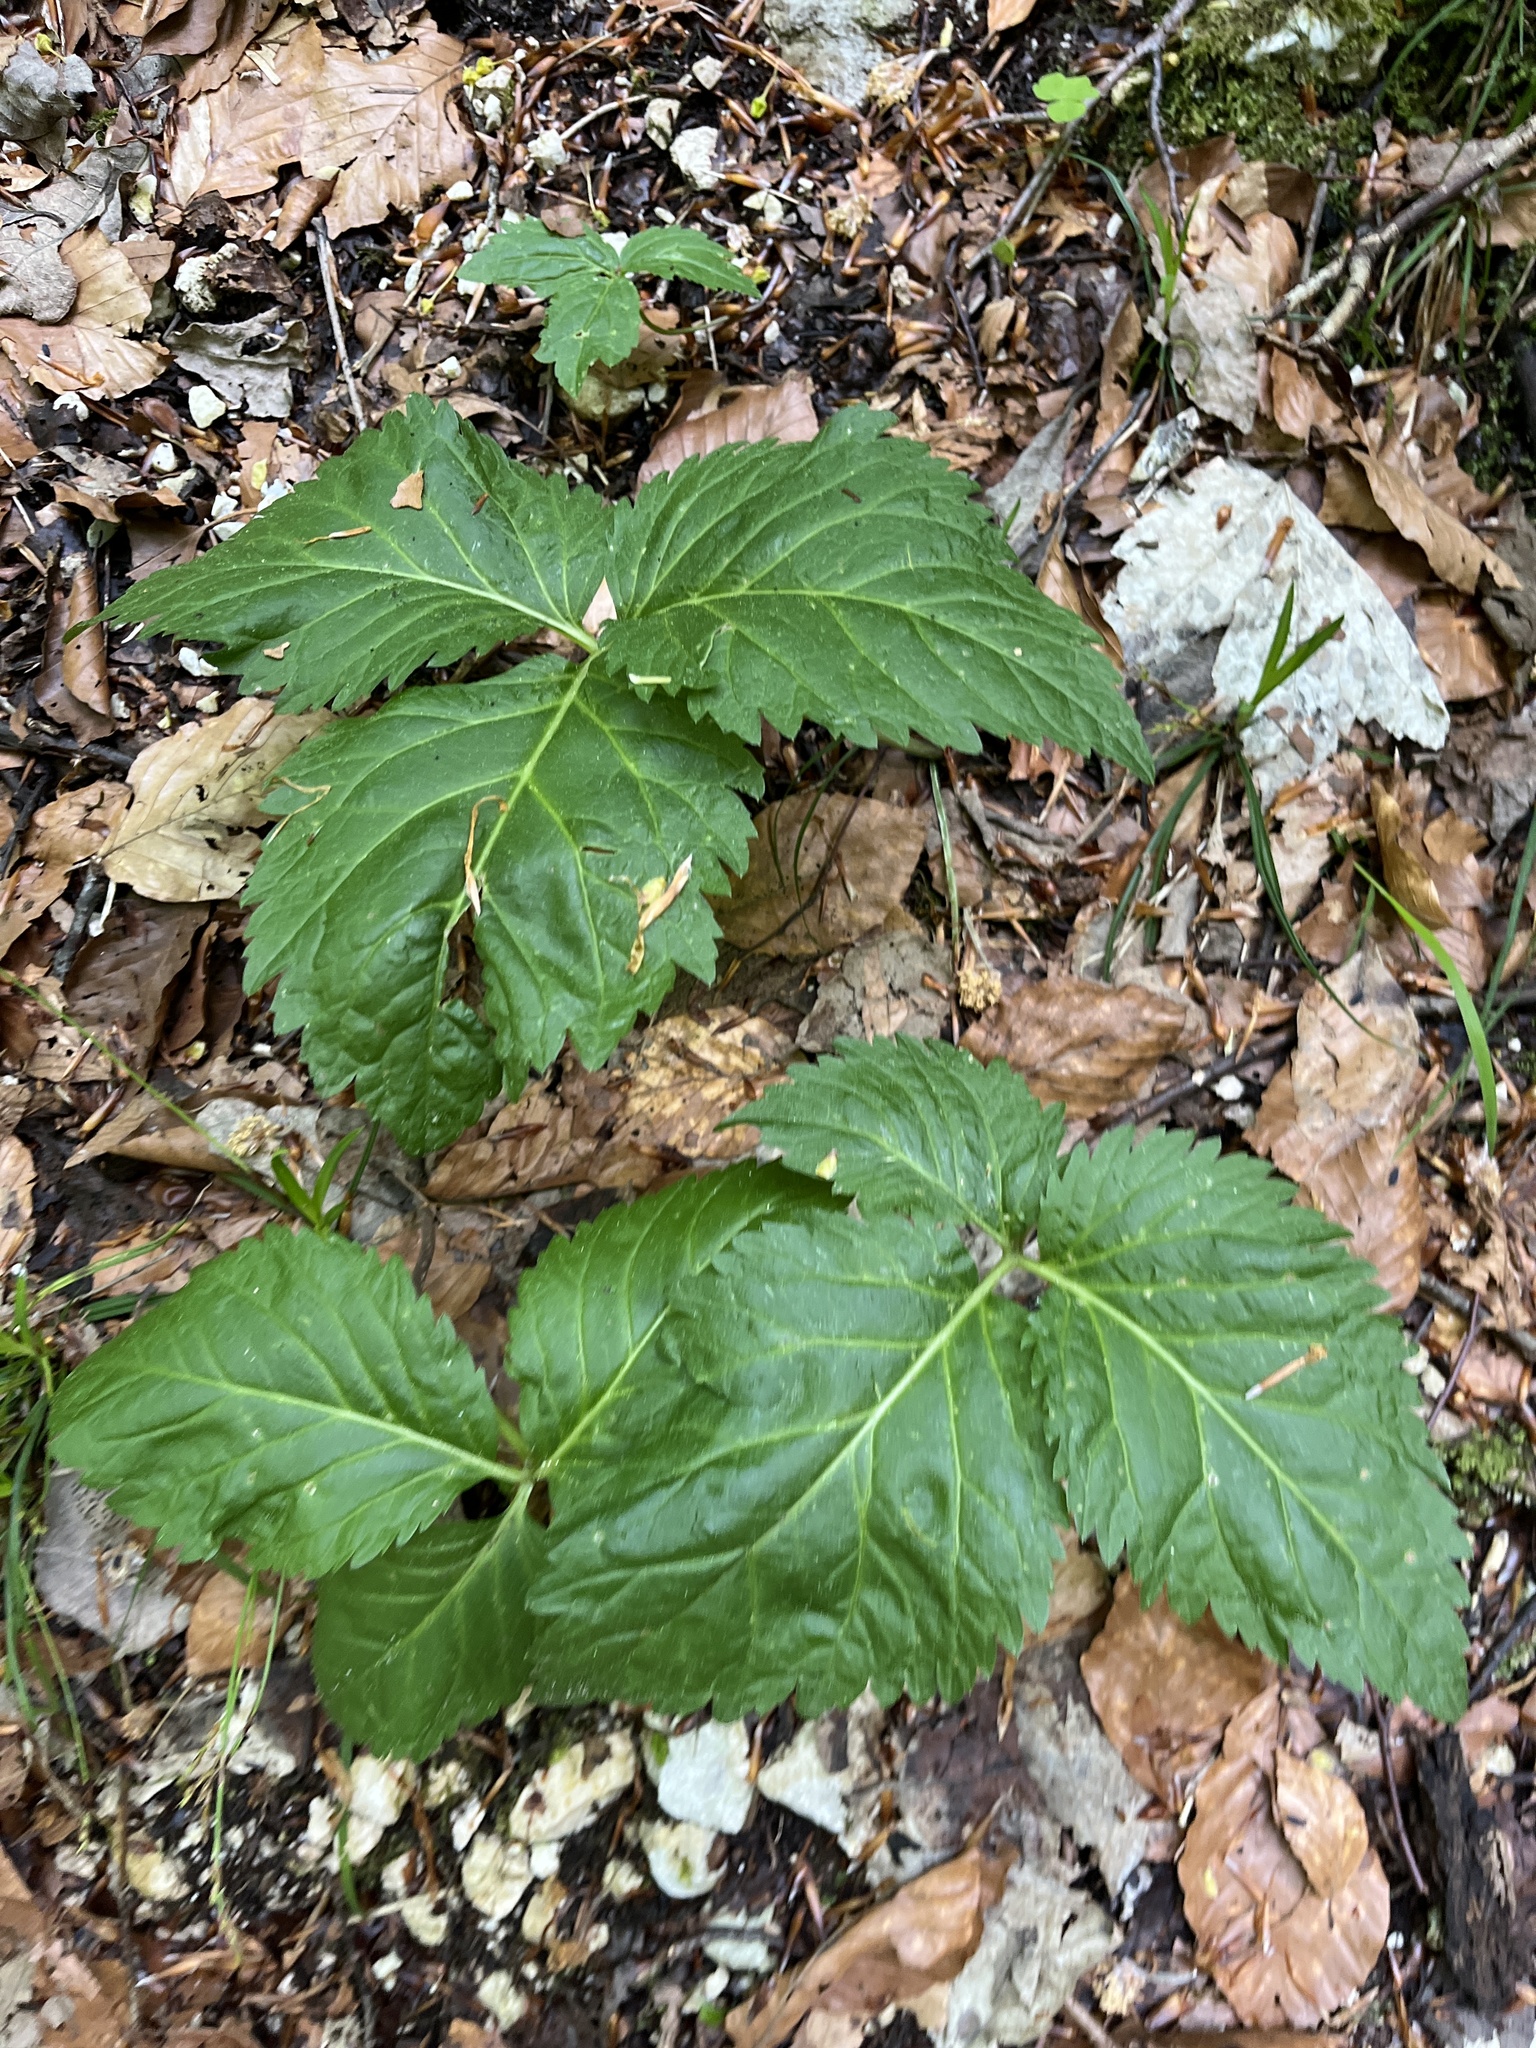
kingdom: Plantae
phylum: Tracheophyta
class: Magnoliopsida
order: Brassicales
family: Brassicaceae
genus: Cardamine
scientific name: Cardamine enneaphyllos
